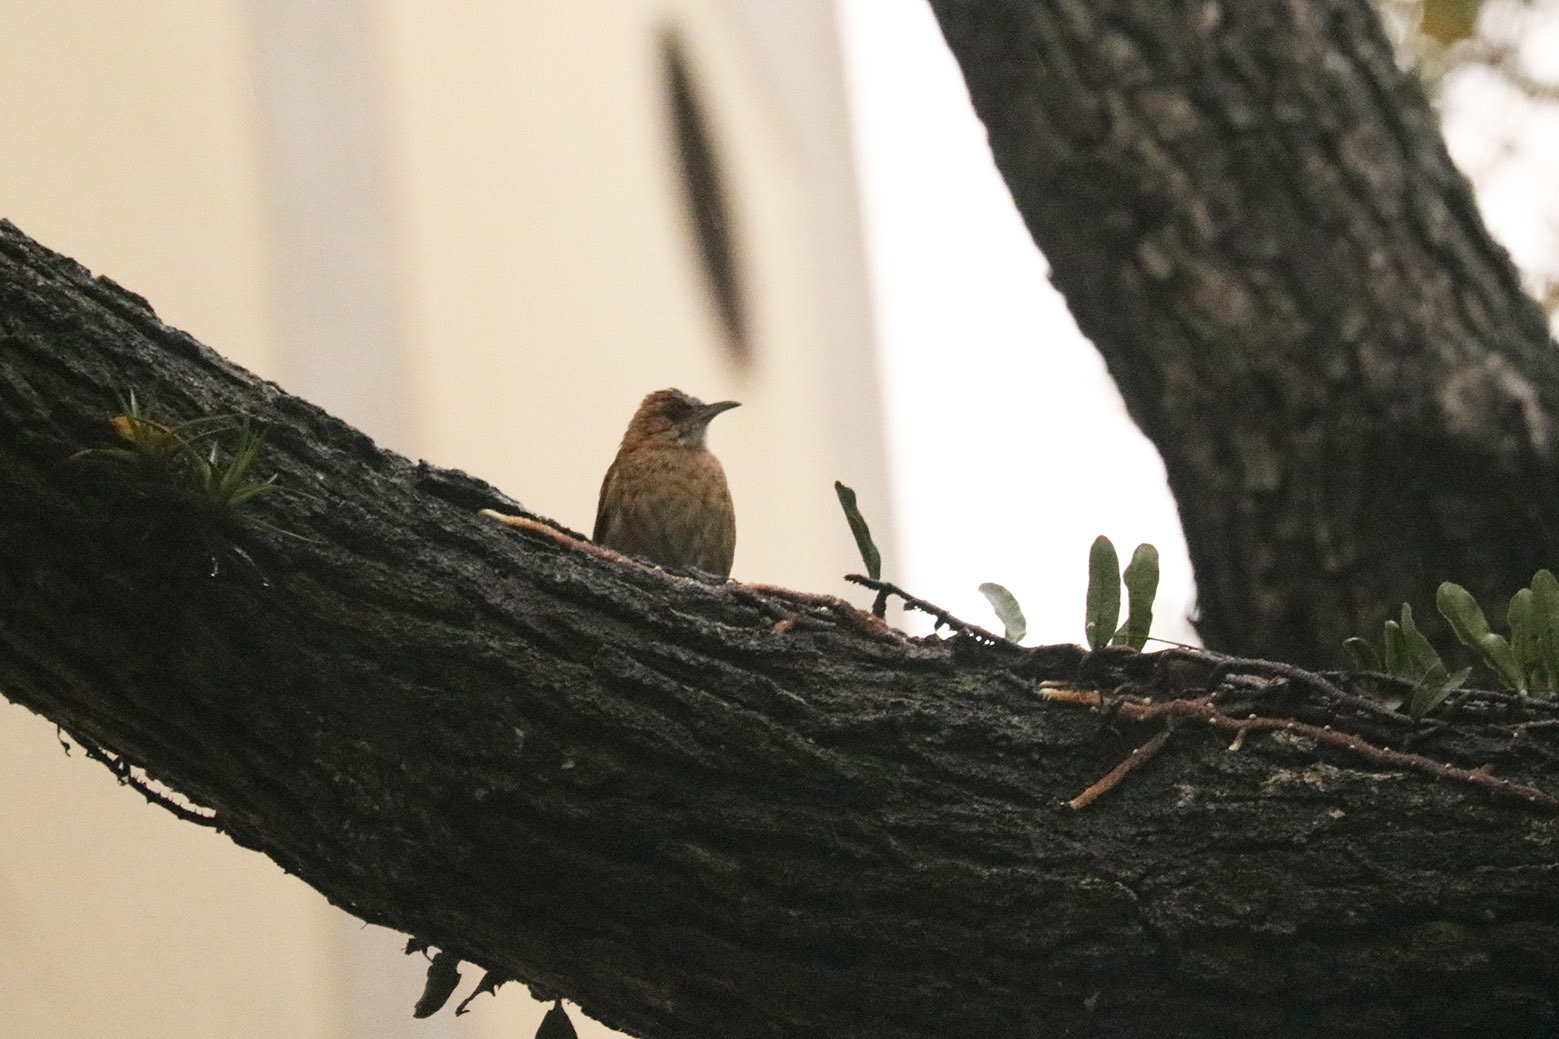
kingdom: Animalia
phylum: Chordata
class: Aves
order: Passeriformes
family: Furnariidae
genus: Furnarius
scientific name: Furnarius rufus
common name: Rufous hornero
